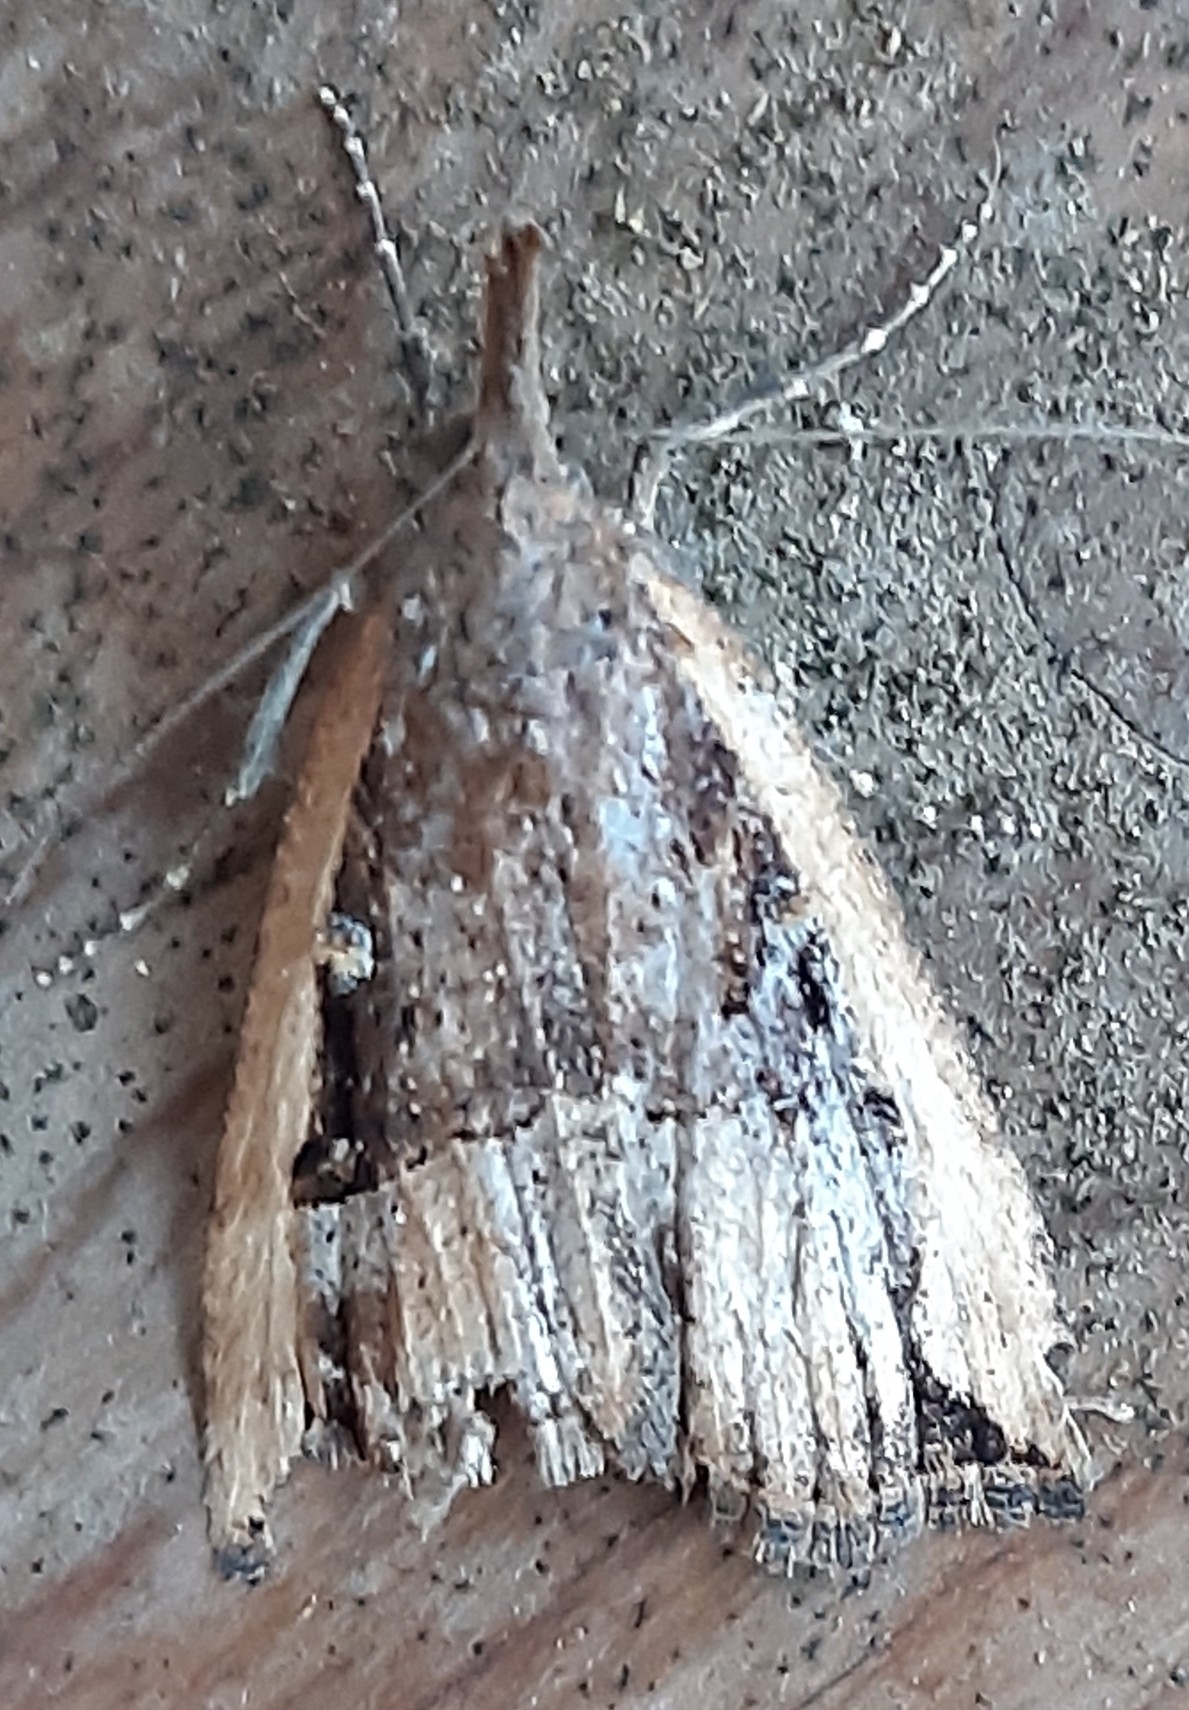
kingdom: Animalia
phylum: Arthropoda
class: Insecta
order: Lepidoptera
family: Erebidae
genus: Hypena
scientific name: Hypena rostralis
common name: Buttoned snout
